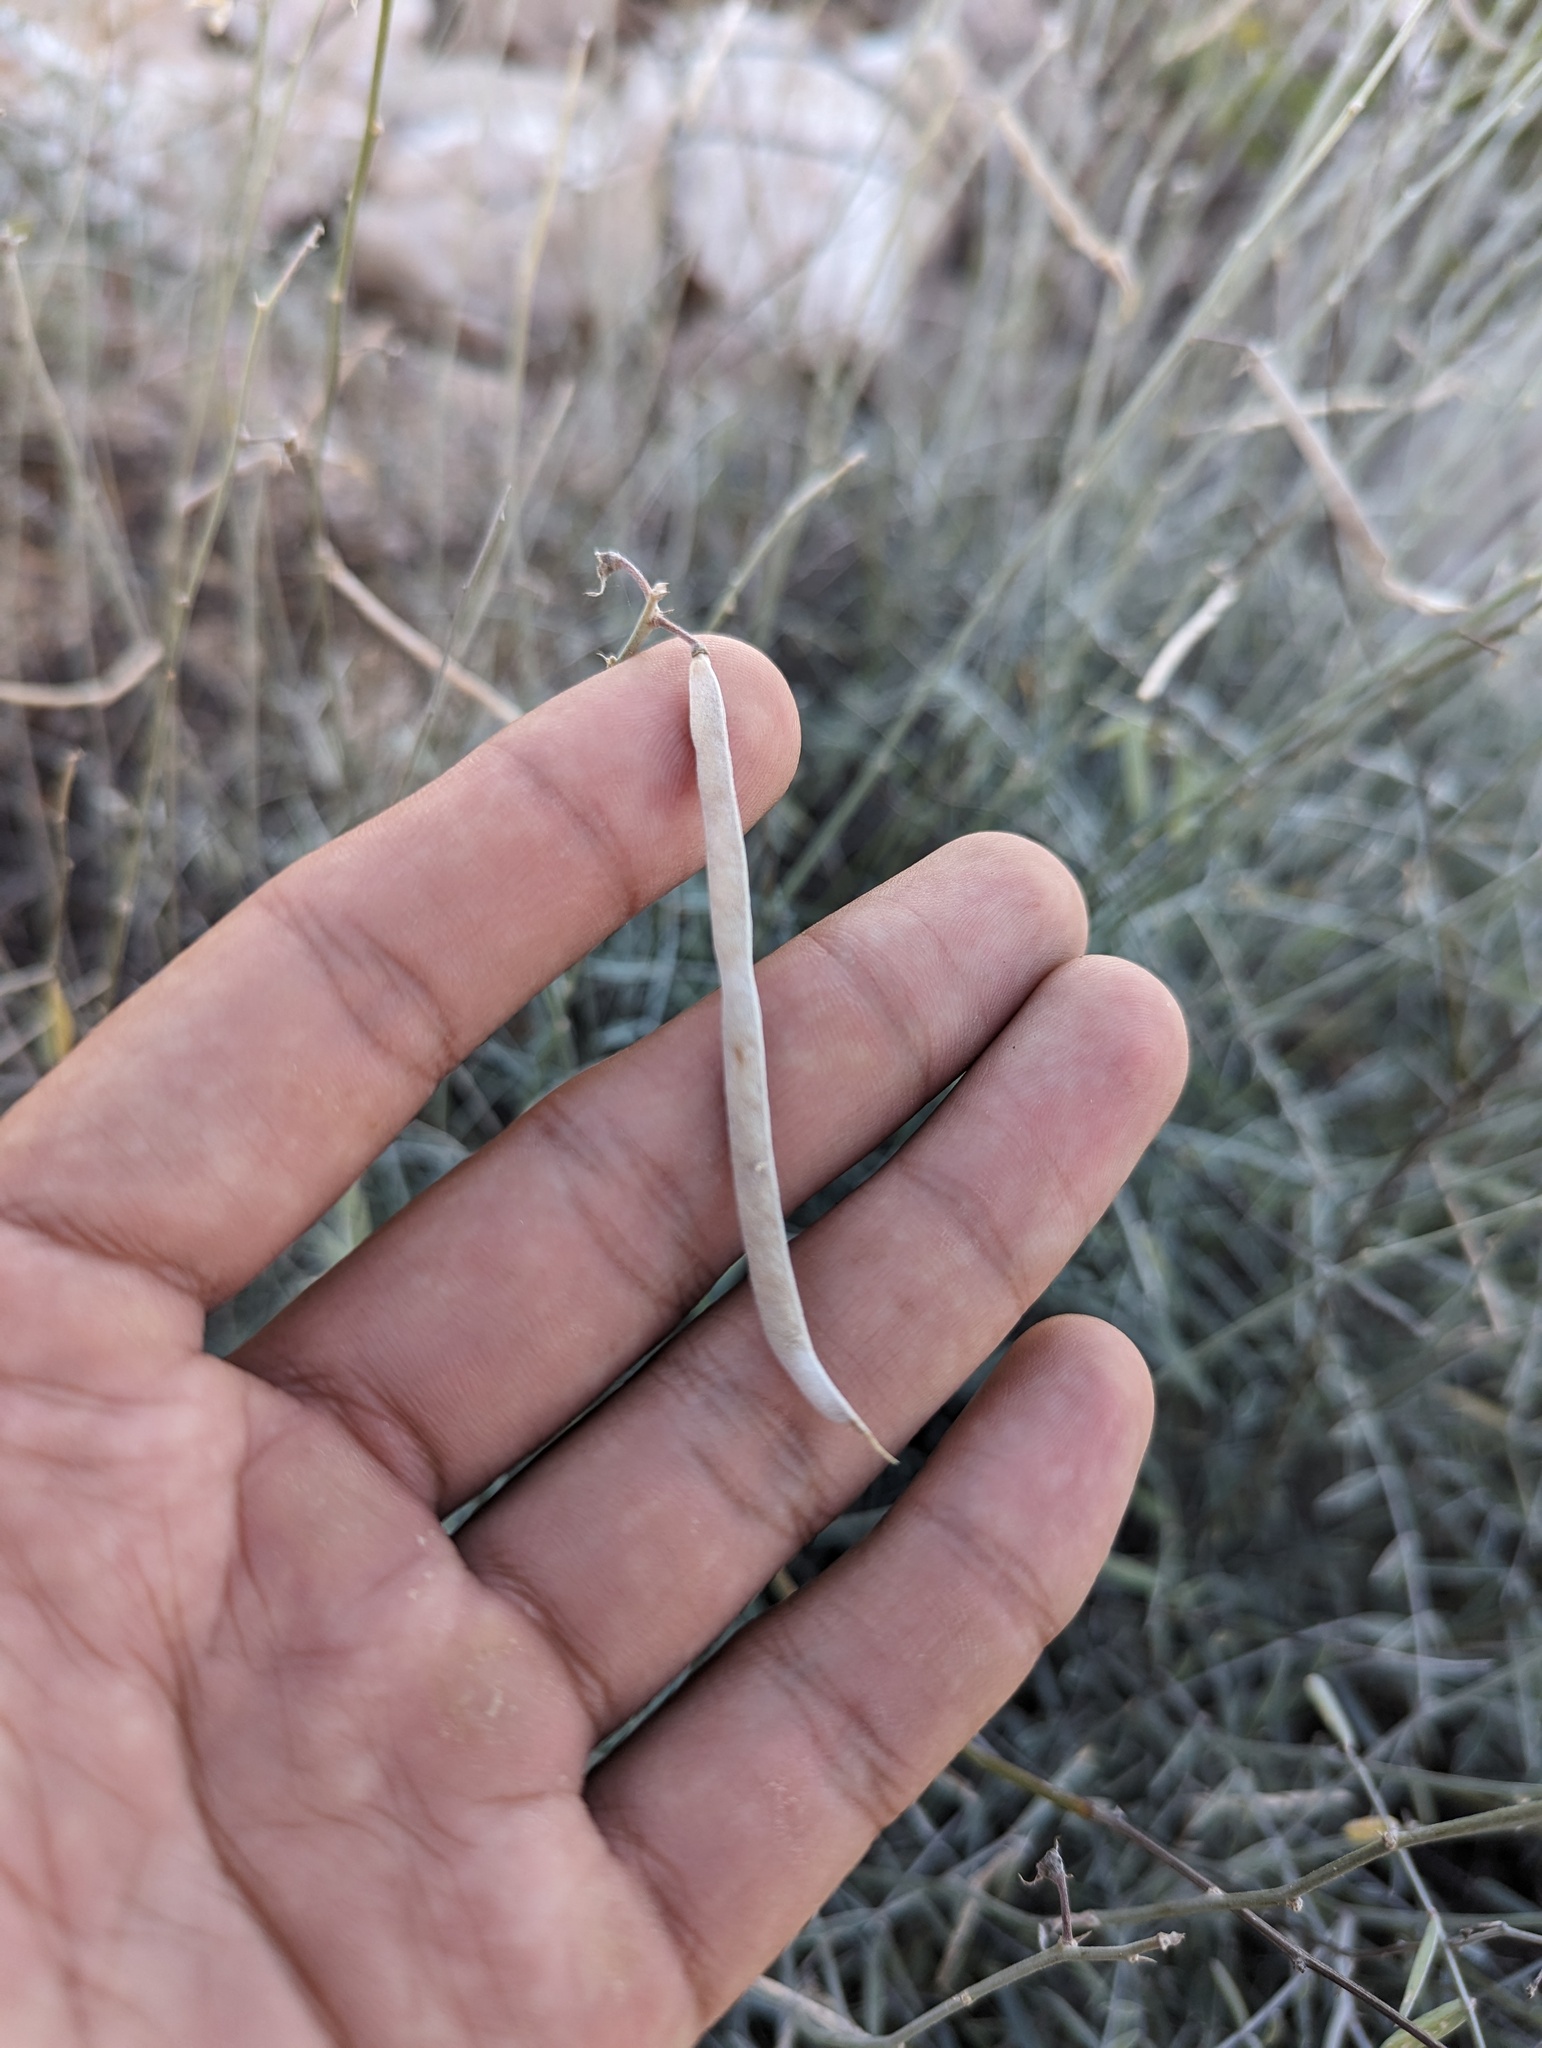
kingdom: Plantae
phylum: Tracheophyta
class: Magnoliopsida
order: Fabales
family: Fabaceae
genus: Tephrosia
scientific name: Tephrosia palmeri
